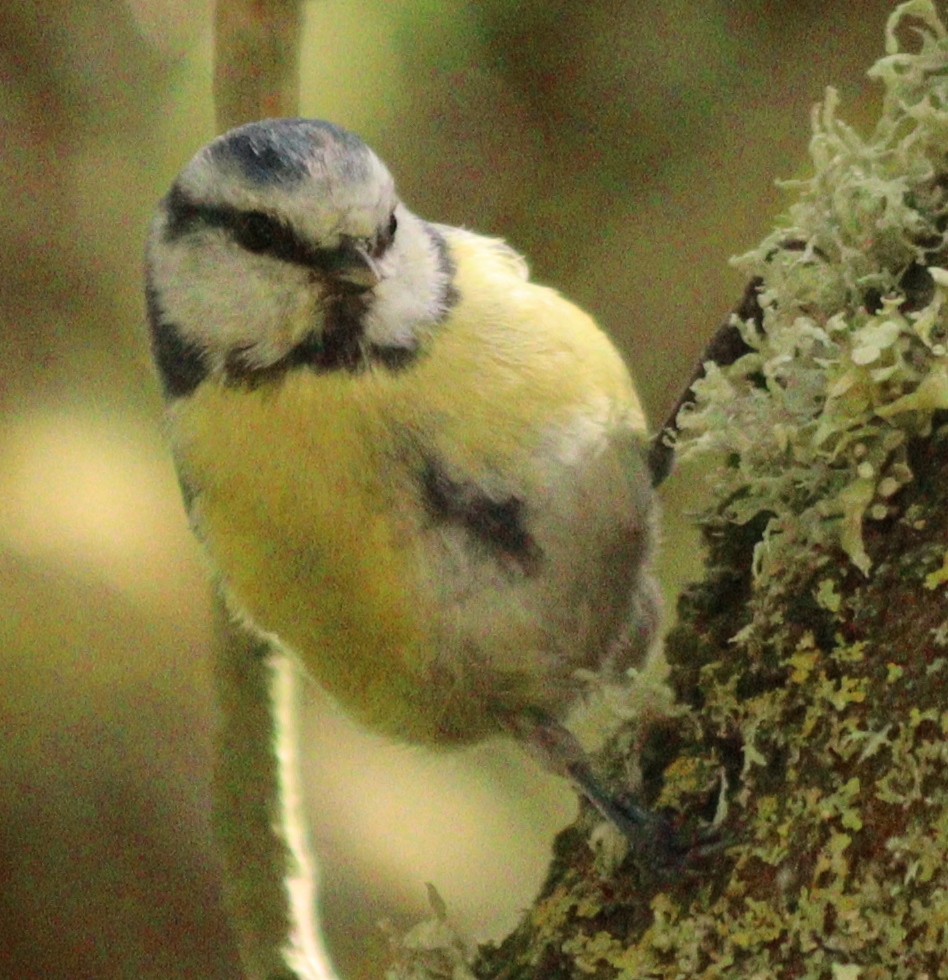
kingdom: Animalia
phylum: Chordata
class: Aves
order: Passeriformes
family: Paridae
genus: Cyanistes
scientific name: Cyanistes caeruleus
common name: Eurasian blue tit
